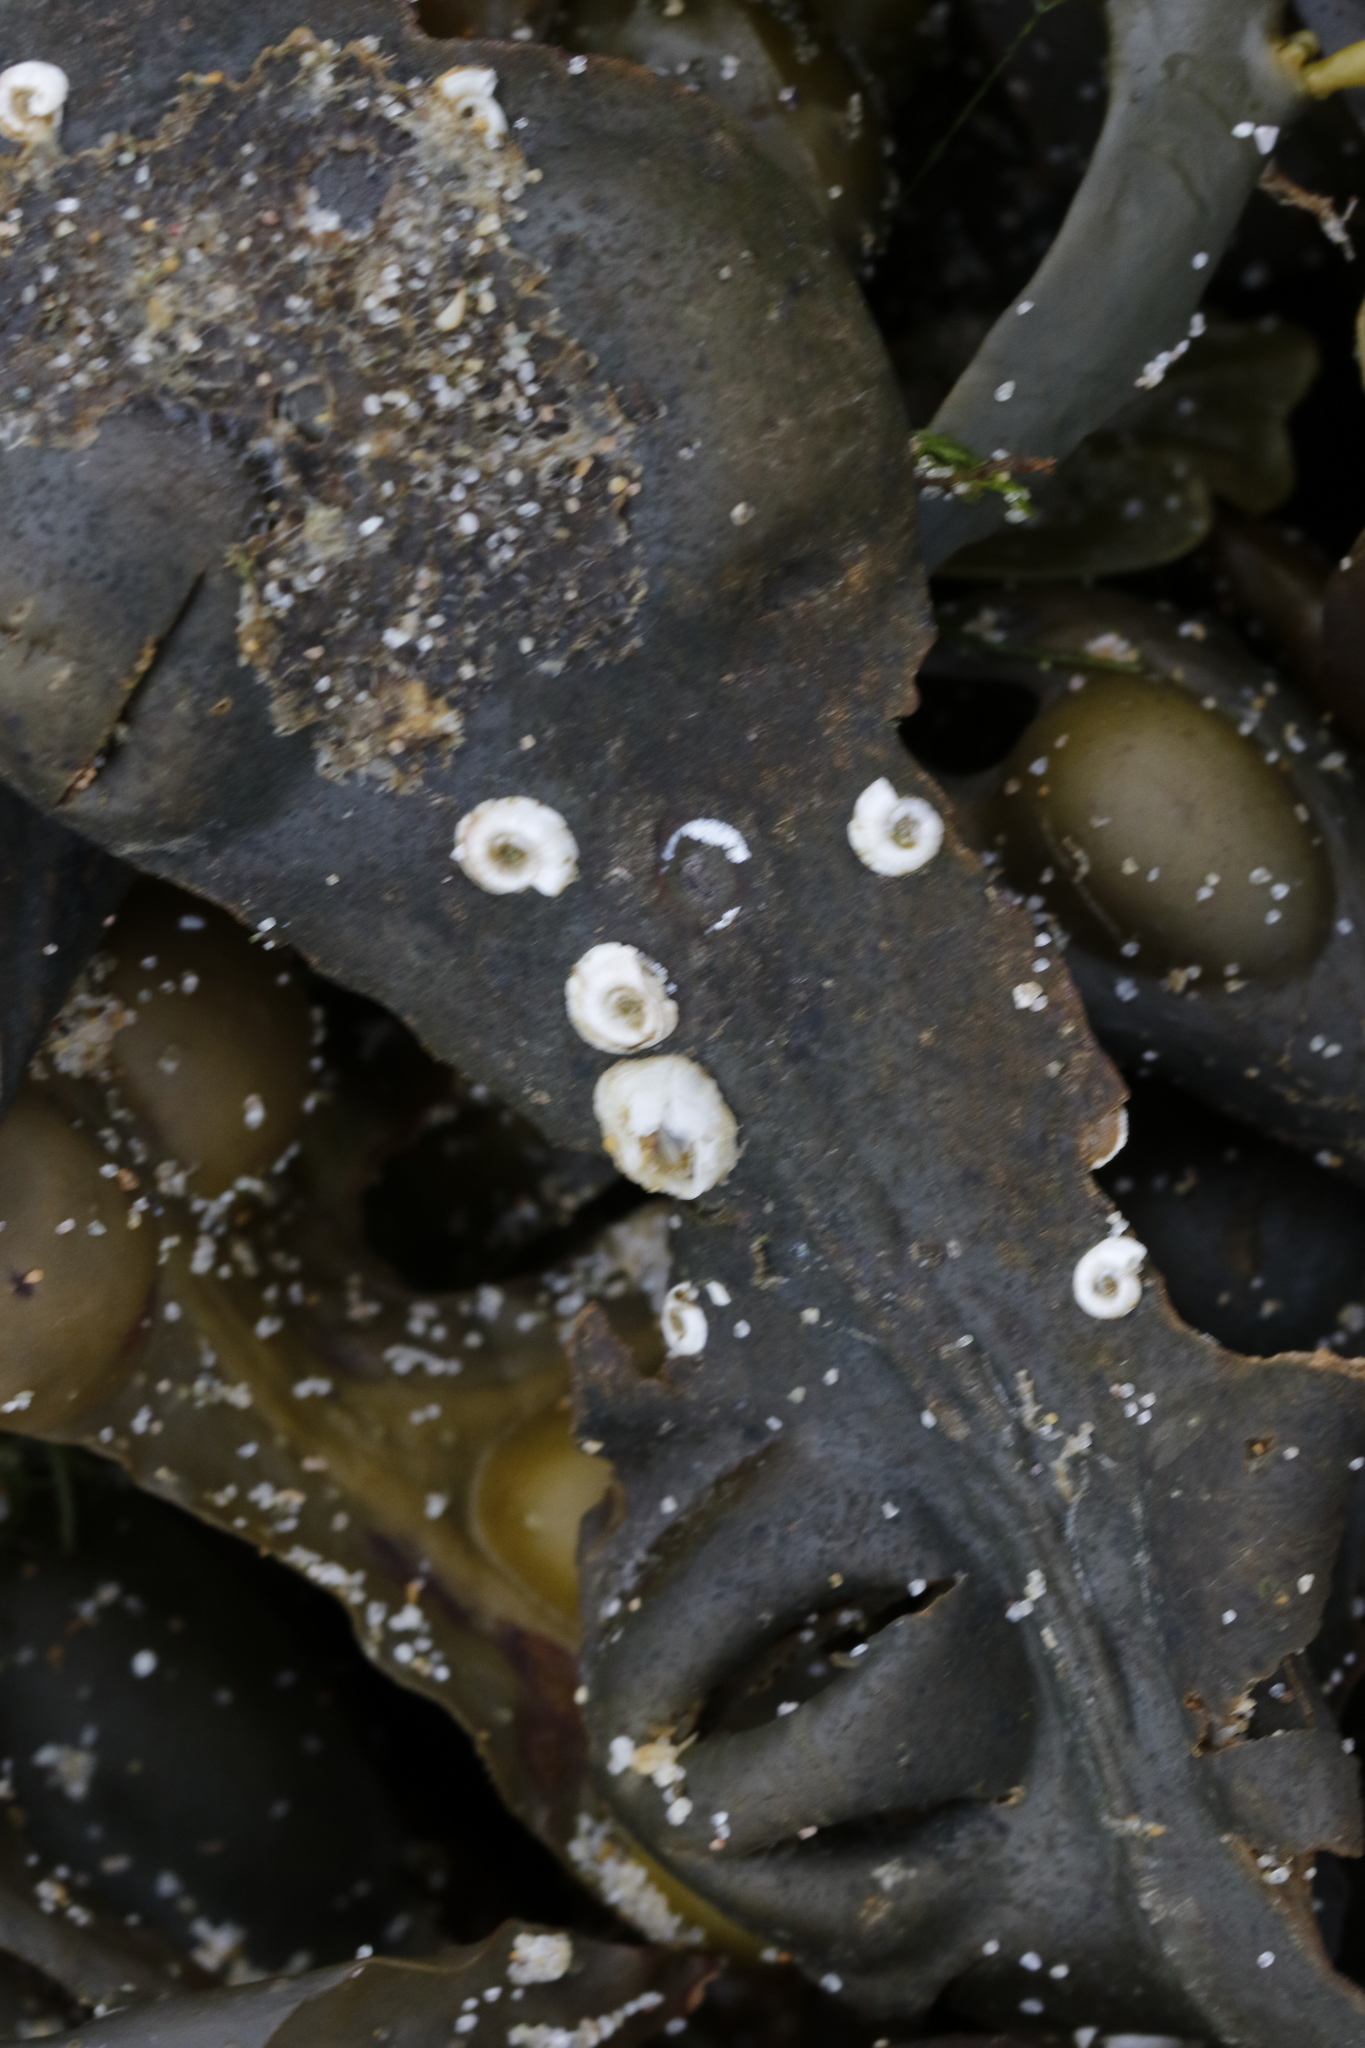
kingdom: Animalia
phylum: Annelida
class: Polychaeta
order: Sabellida
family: Serpulidae
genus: Spirorbis
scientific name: Spirorbis spirorbis
